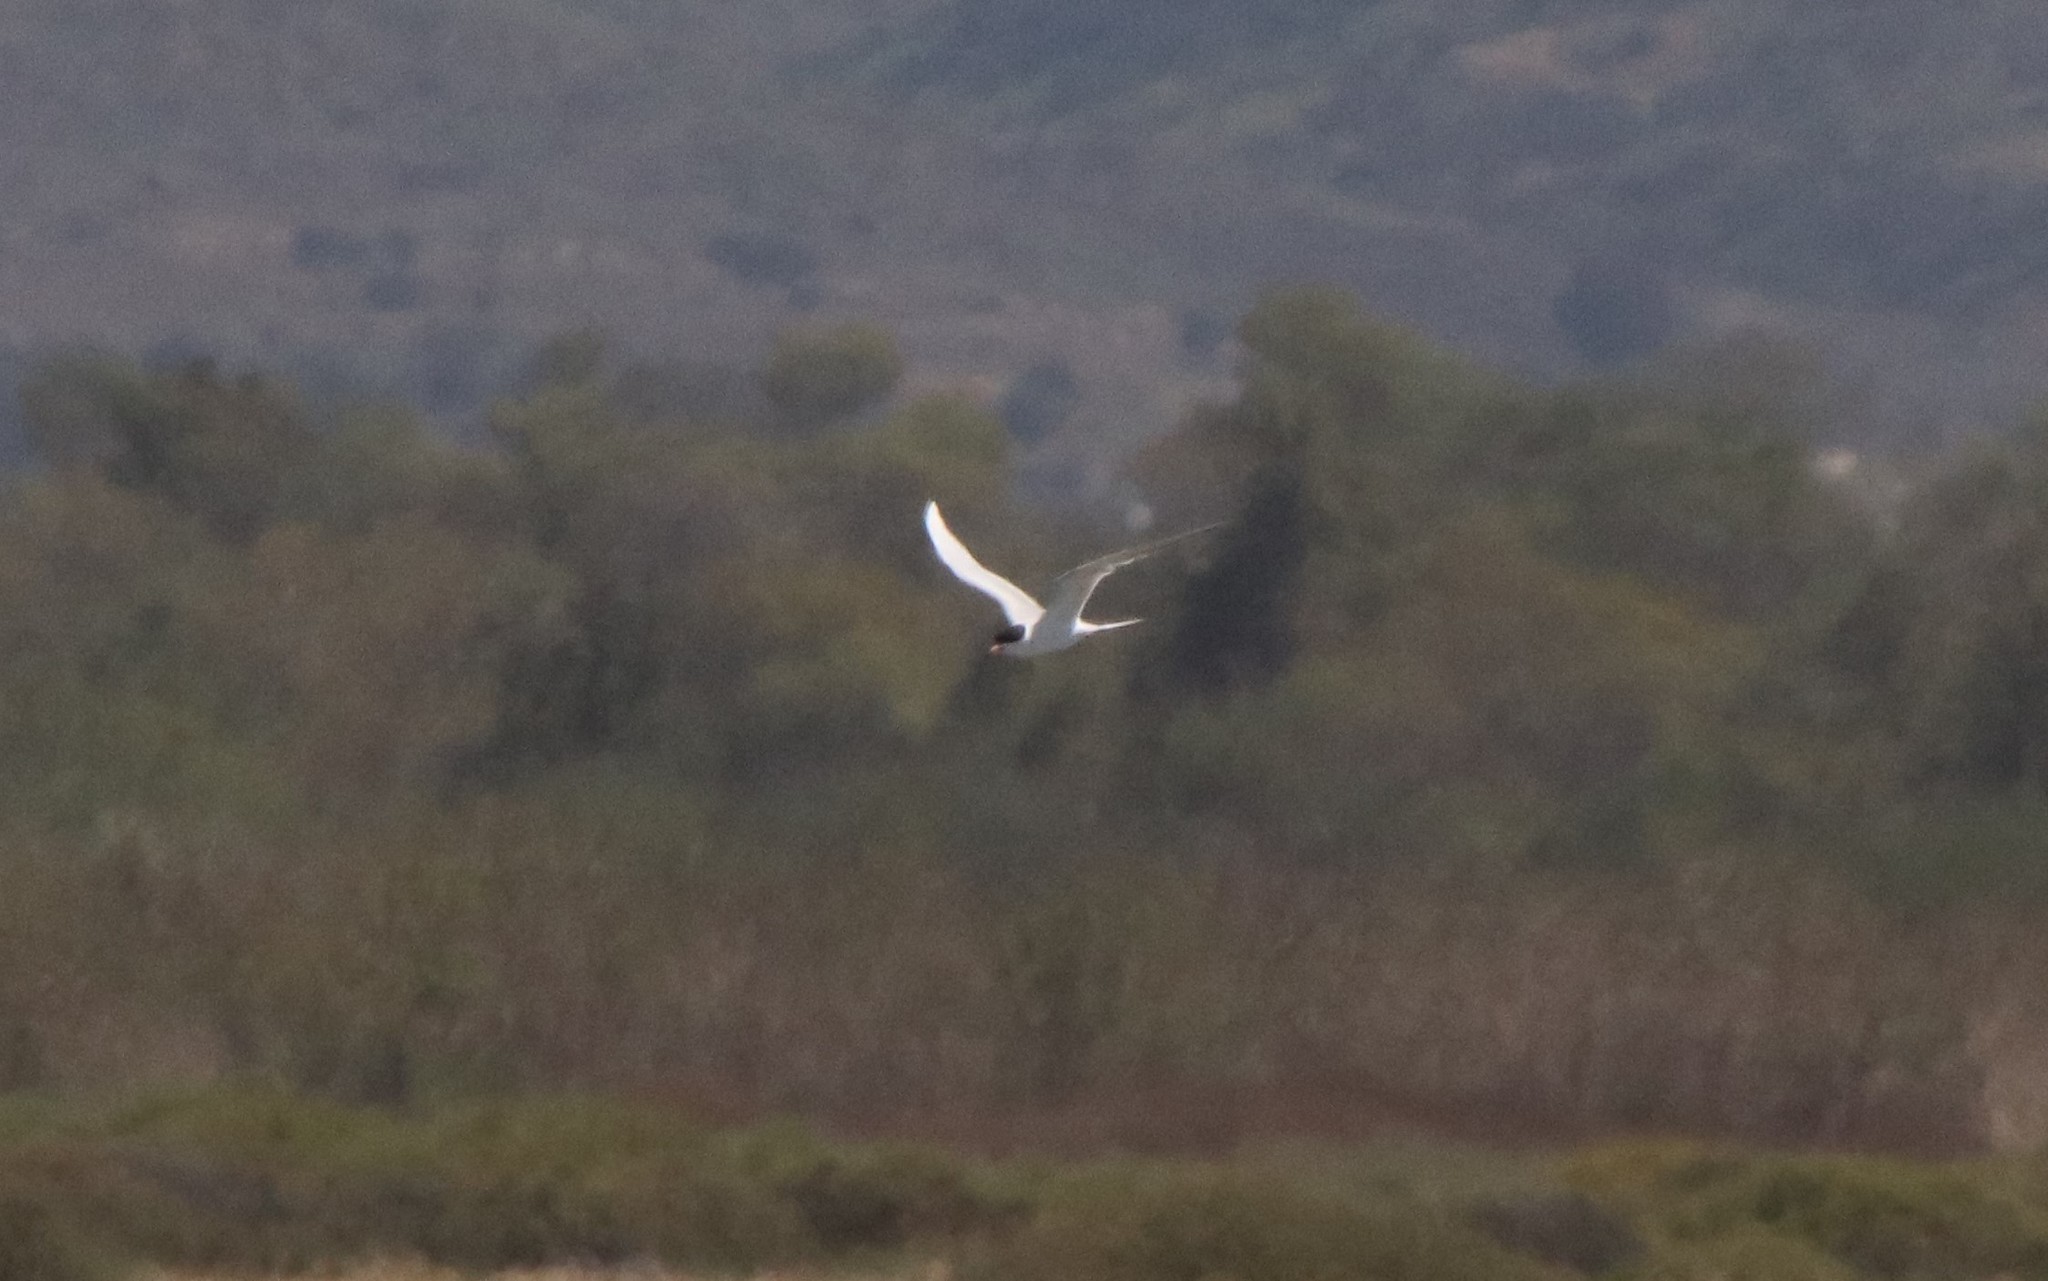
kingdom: Animalia
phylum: Chordata
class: Aves
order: Charadriiformes
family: Laridae
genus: Sterna
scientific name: Sterna forsteri
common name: Forster's tern
